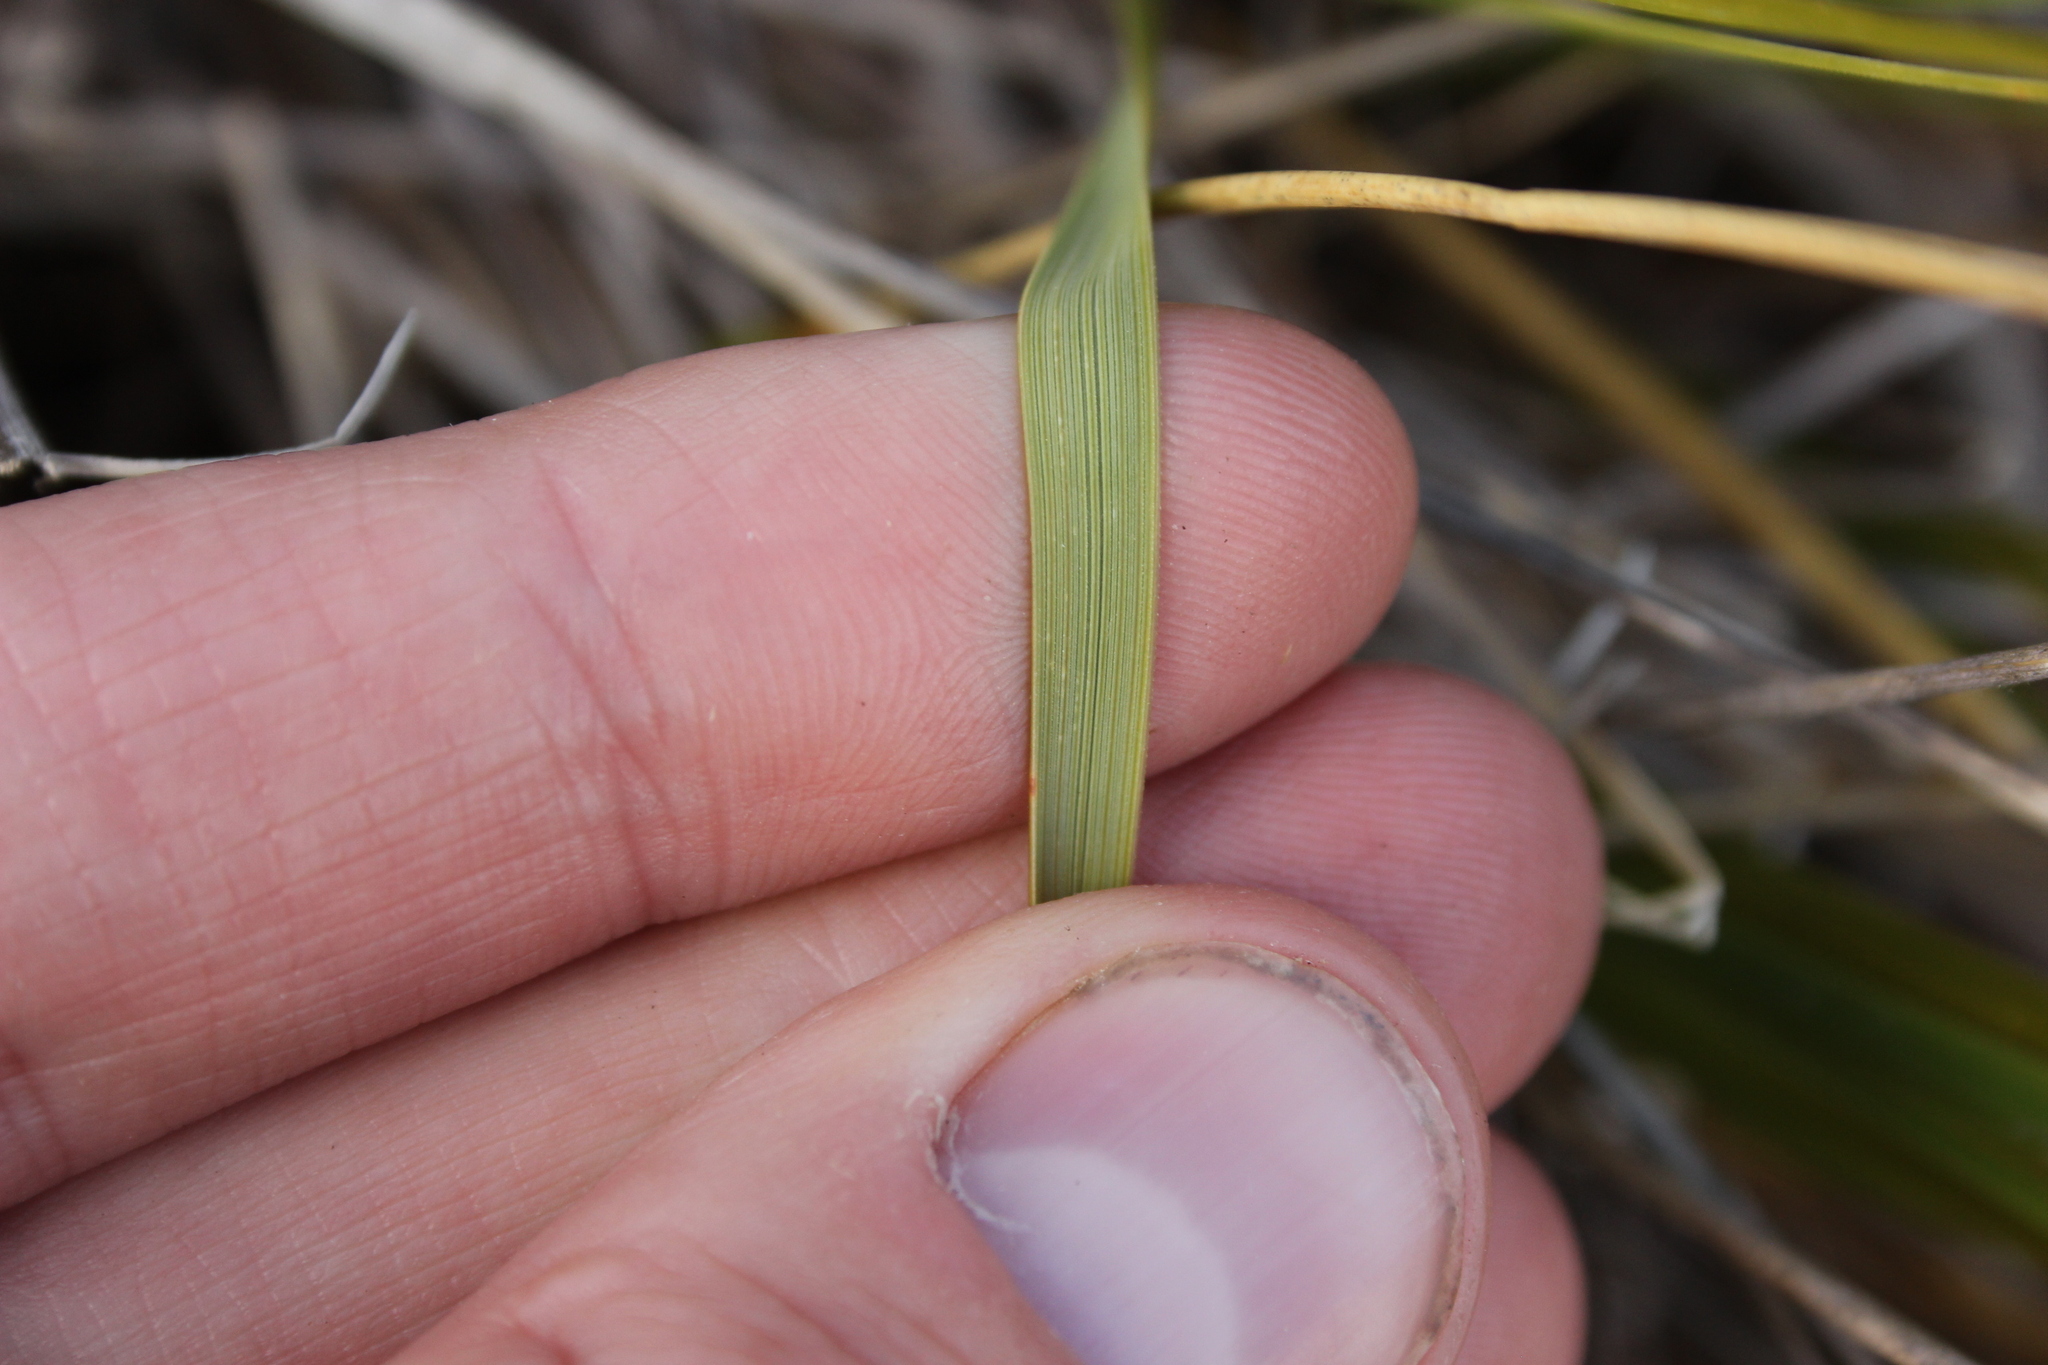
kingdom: Plantae
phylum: Tracheophyta
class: Liliopsida
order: Poales
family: Poaceae
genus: Chionochloa
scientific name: Chionochloa macra
